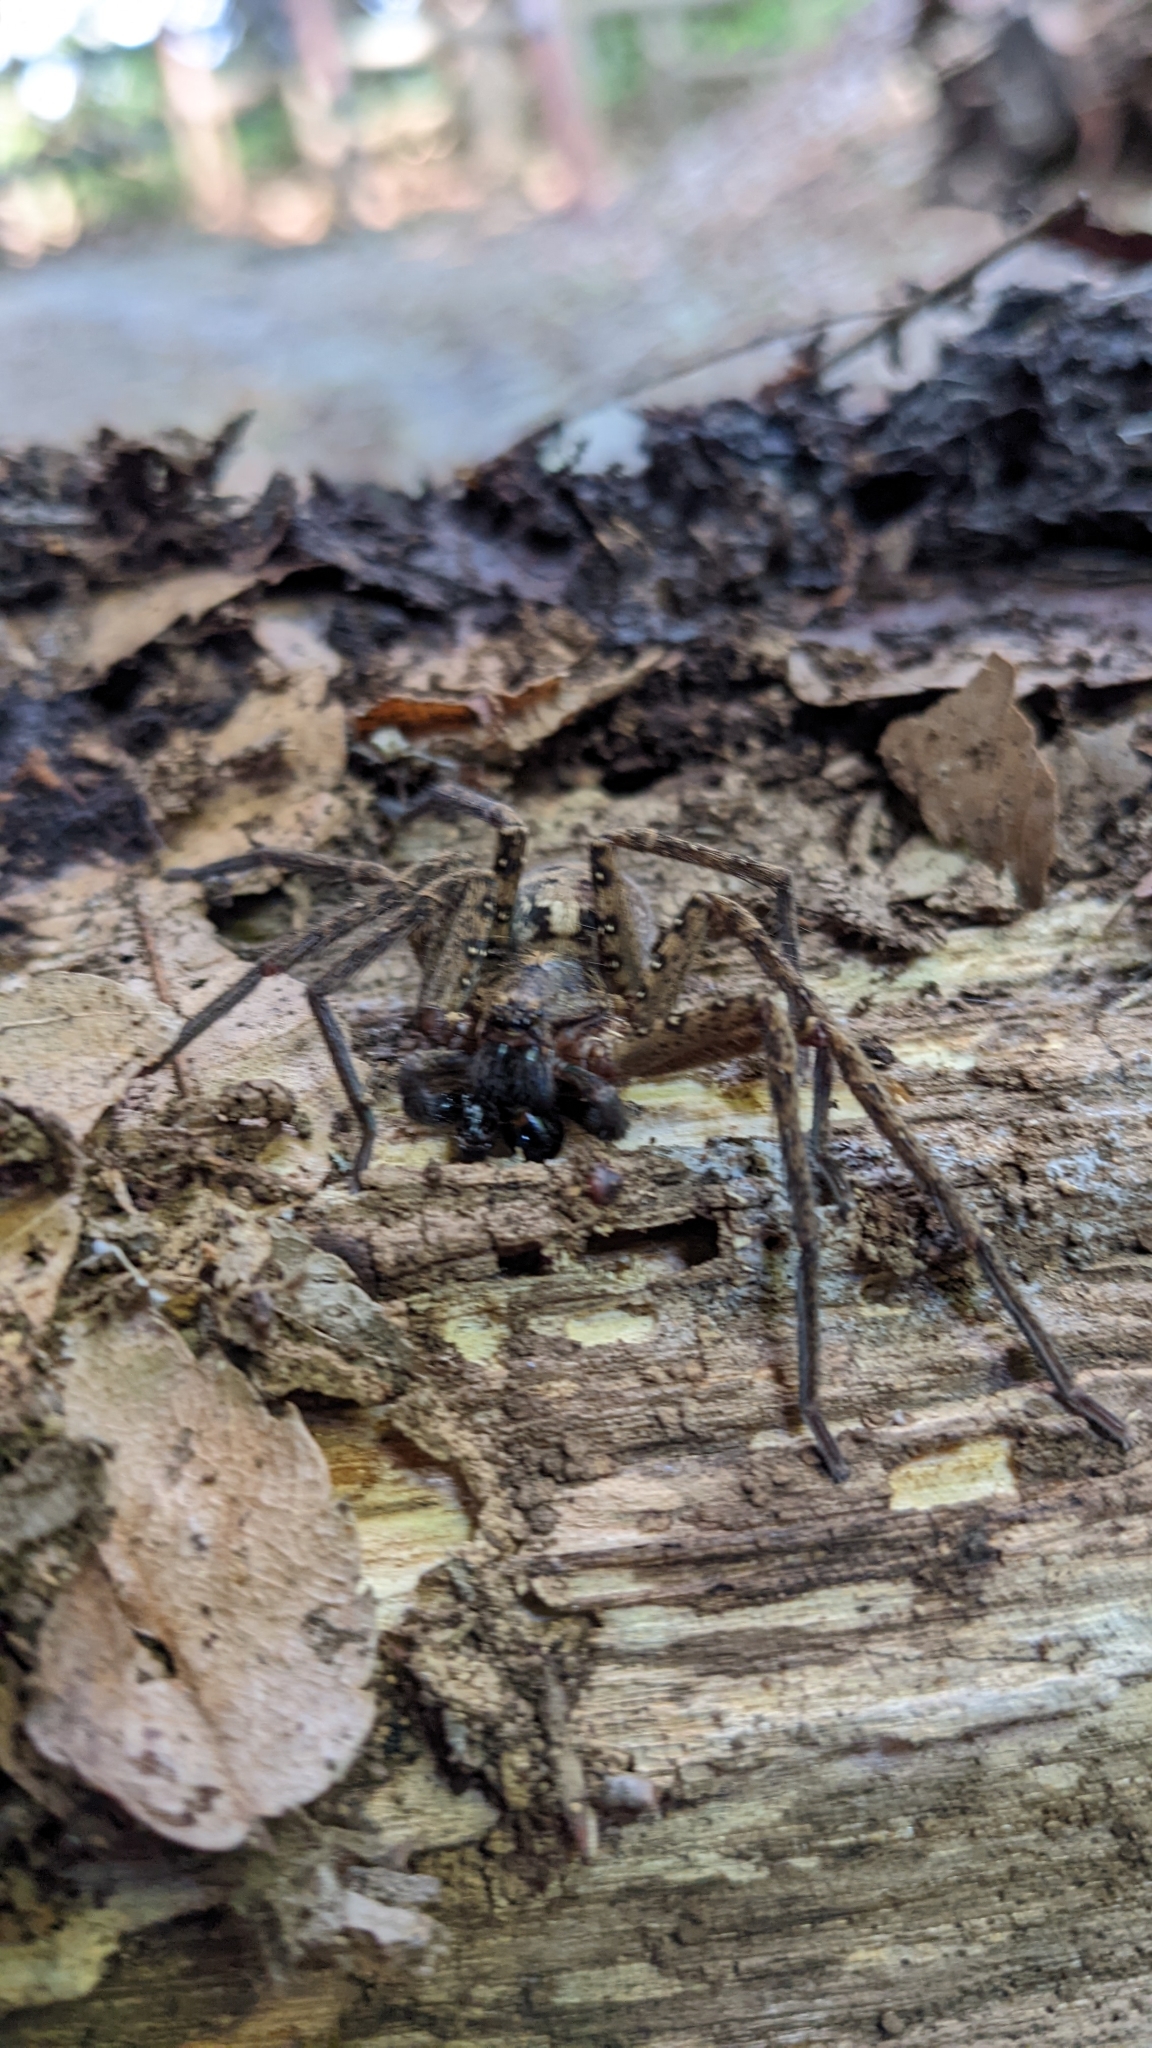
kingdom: Animalia
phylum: Arthropoda
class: Arachnida
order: Araneae
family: Sparassidae
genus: Sinopoda
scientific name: Sinopoda forcipata
